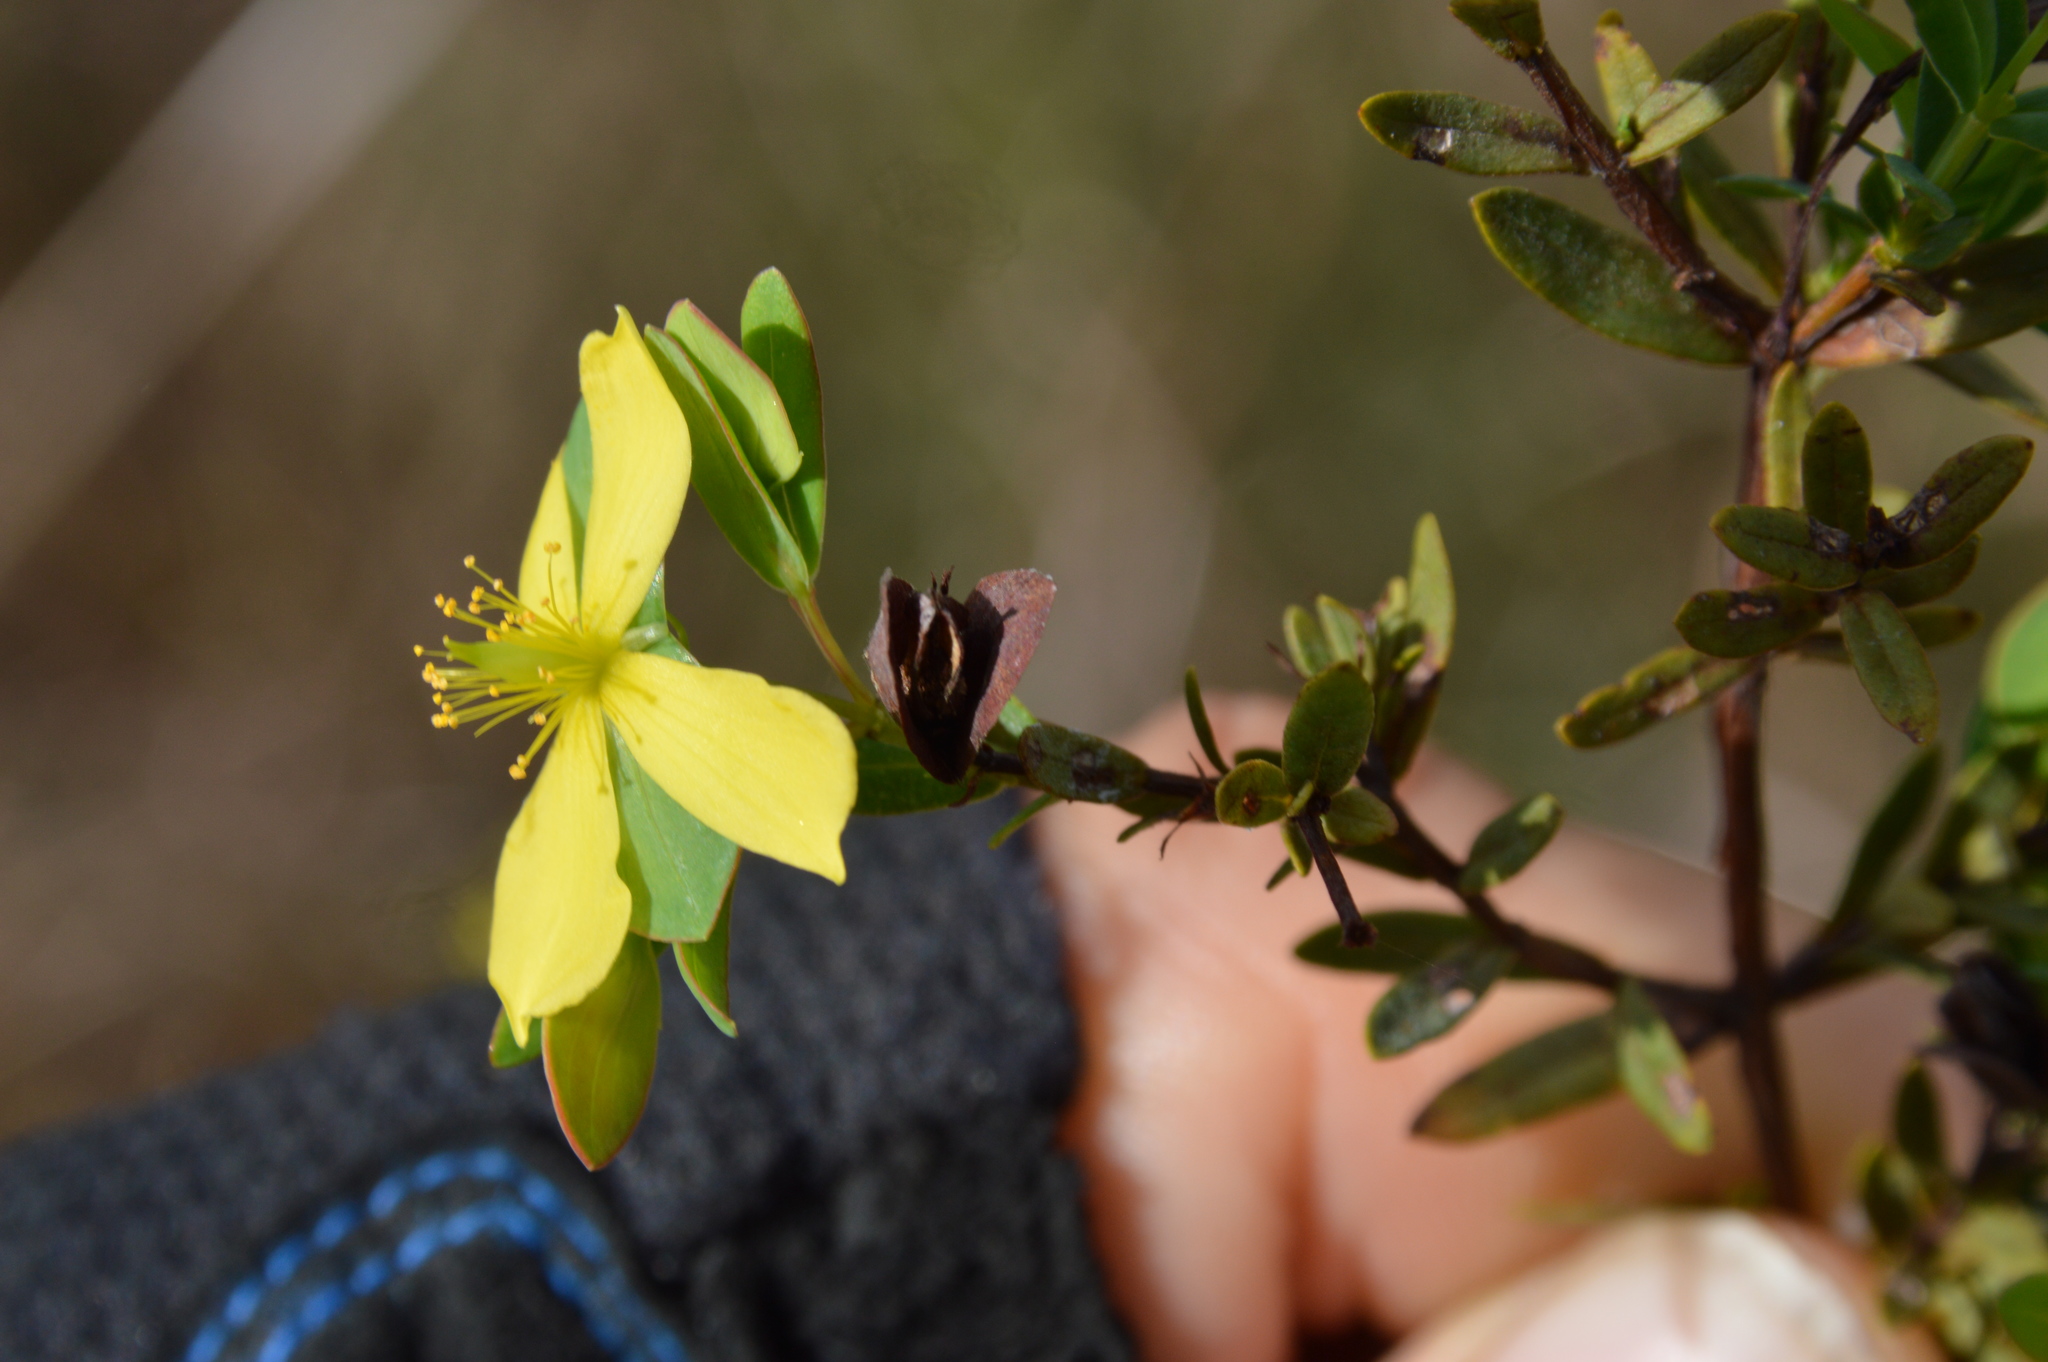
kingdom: Plantae
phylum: Tracheophyta
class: Magnoliopsida
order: Malpighiales
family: Hypericaceae
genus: Hypericum
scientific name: Hypericum hypericoides
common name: St. andrew's cross
